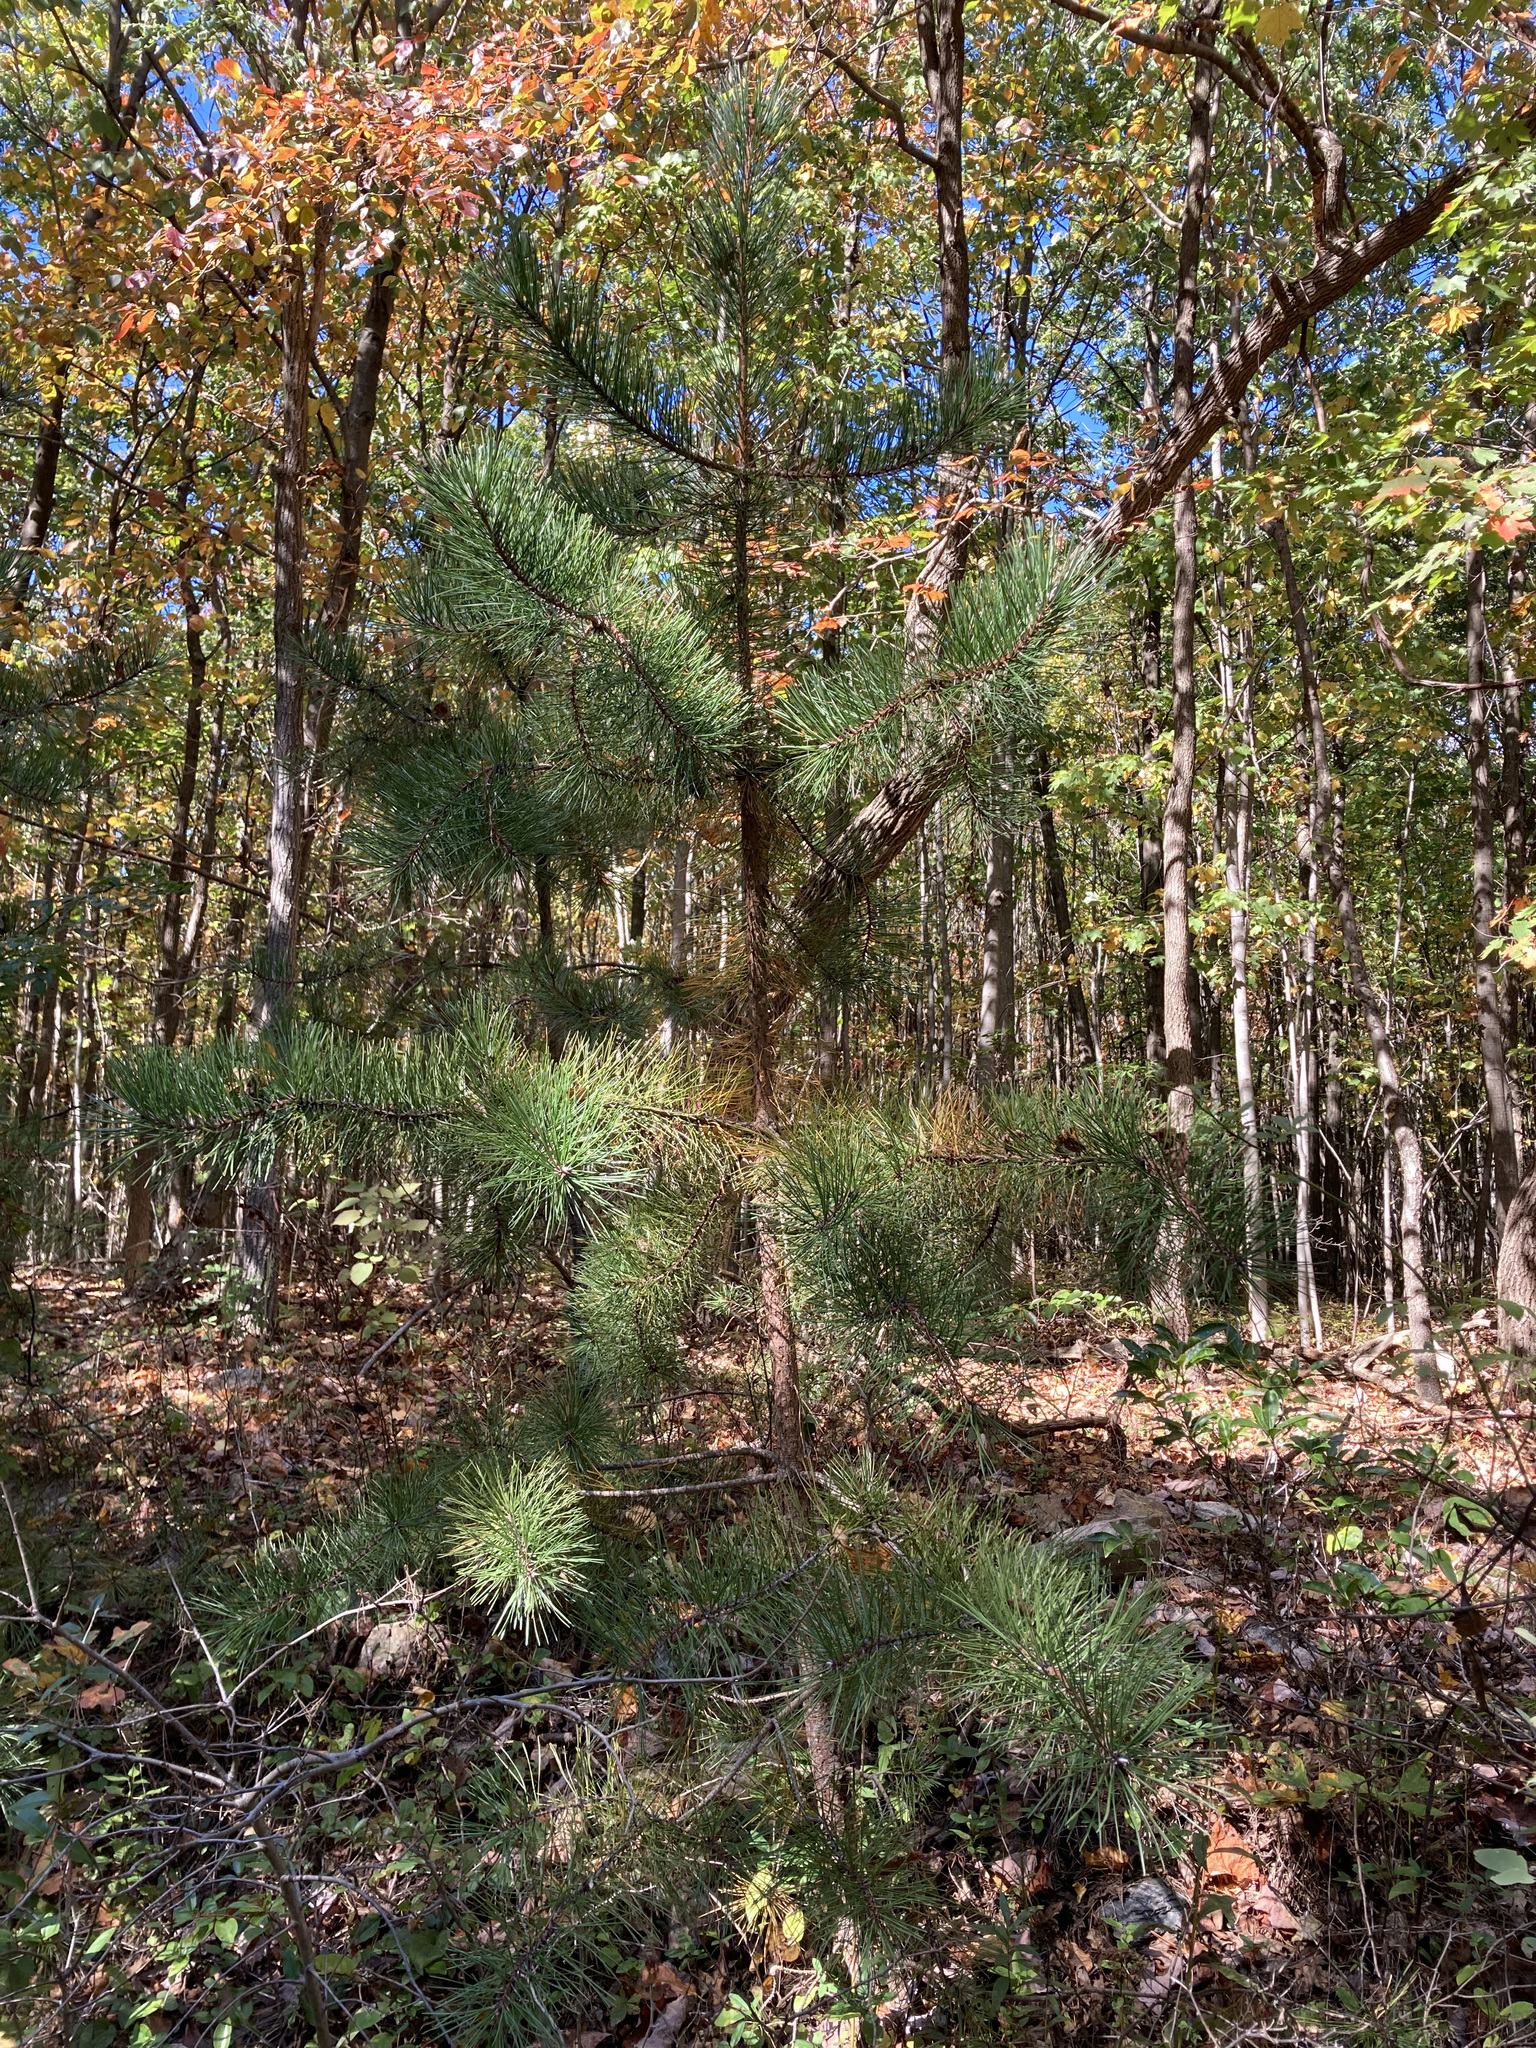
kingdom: Plantae
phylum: Tracheophyta
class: Pinopsida
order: Pinales
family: Pinaceae
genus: Pinus
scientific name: Pinus rigida
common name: Pitch pine
